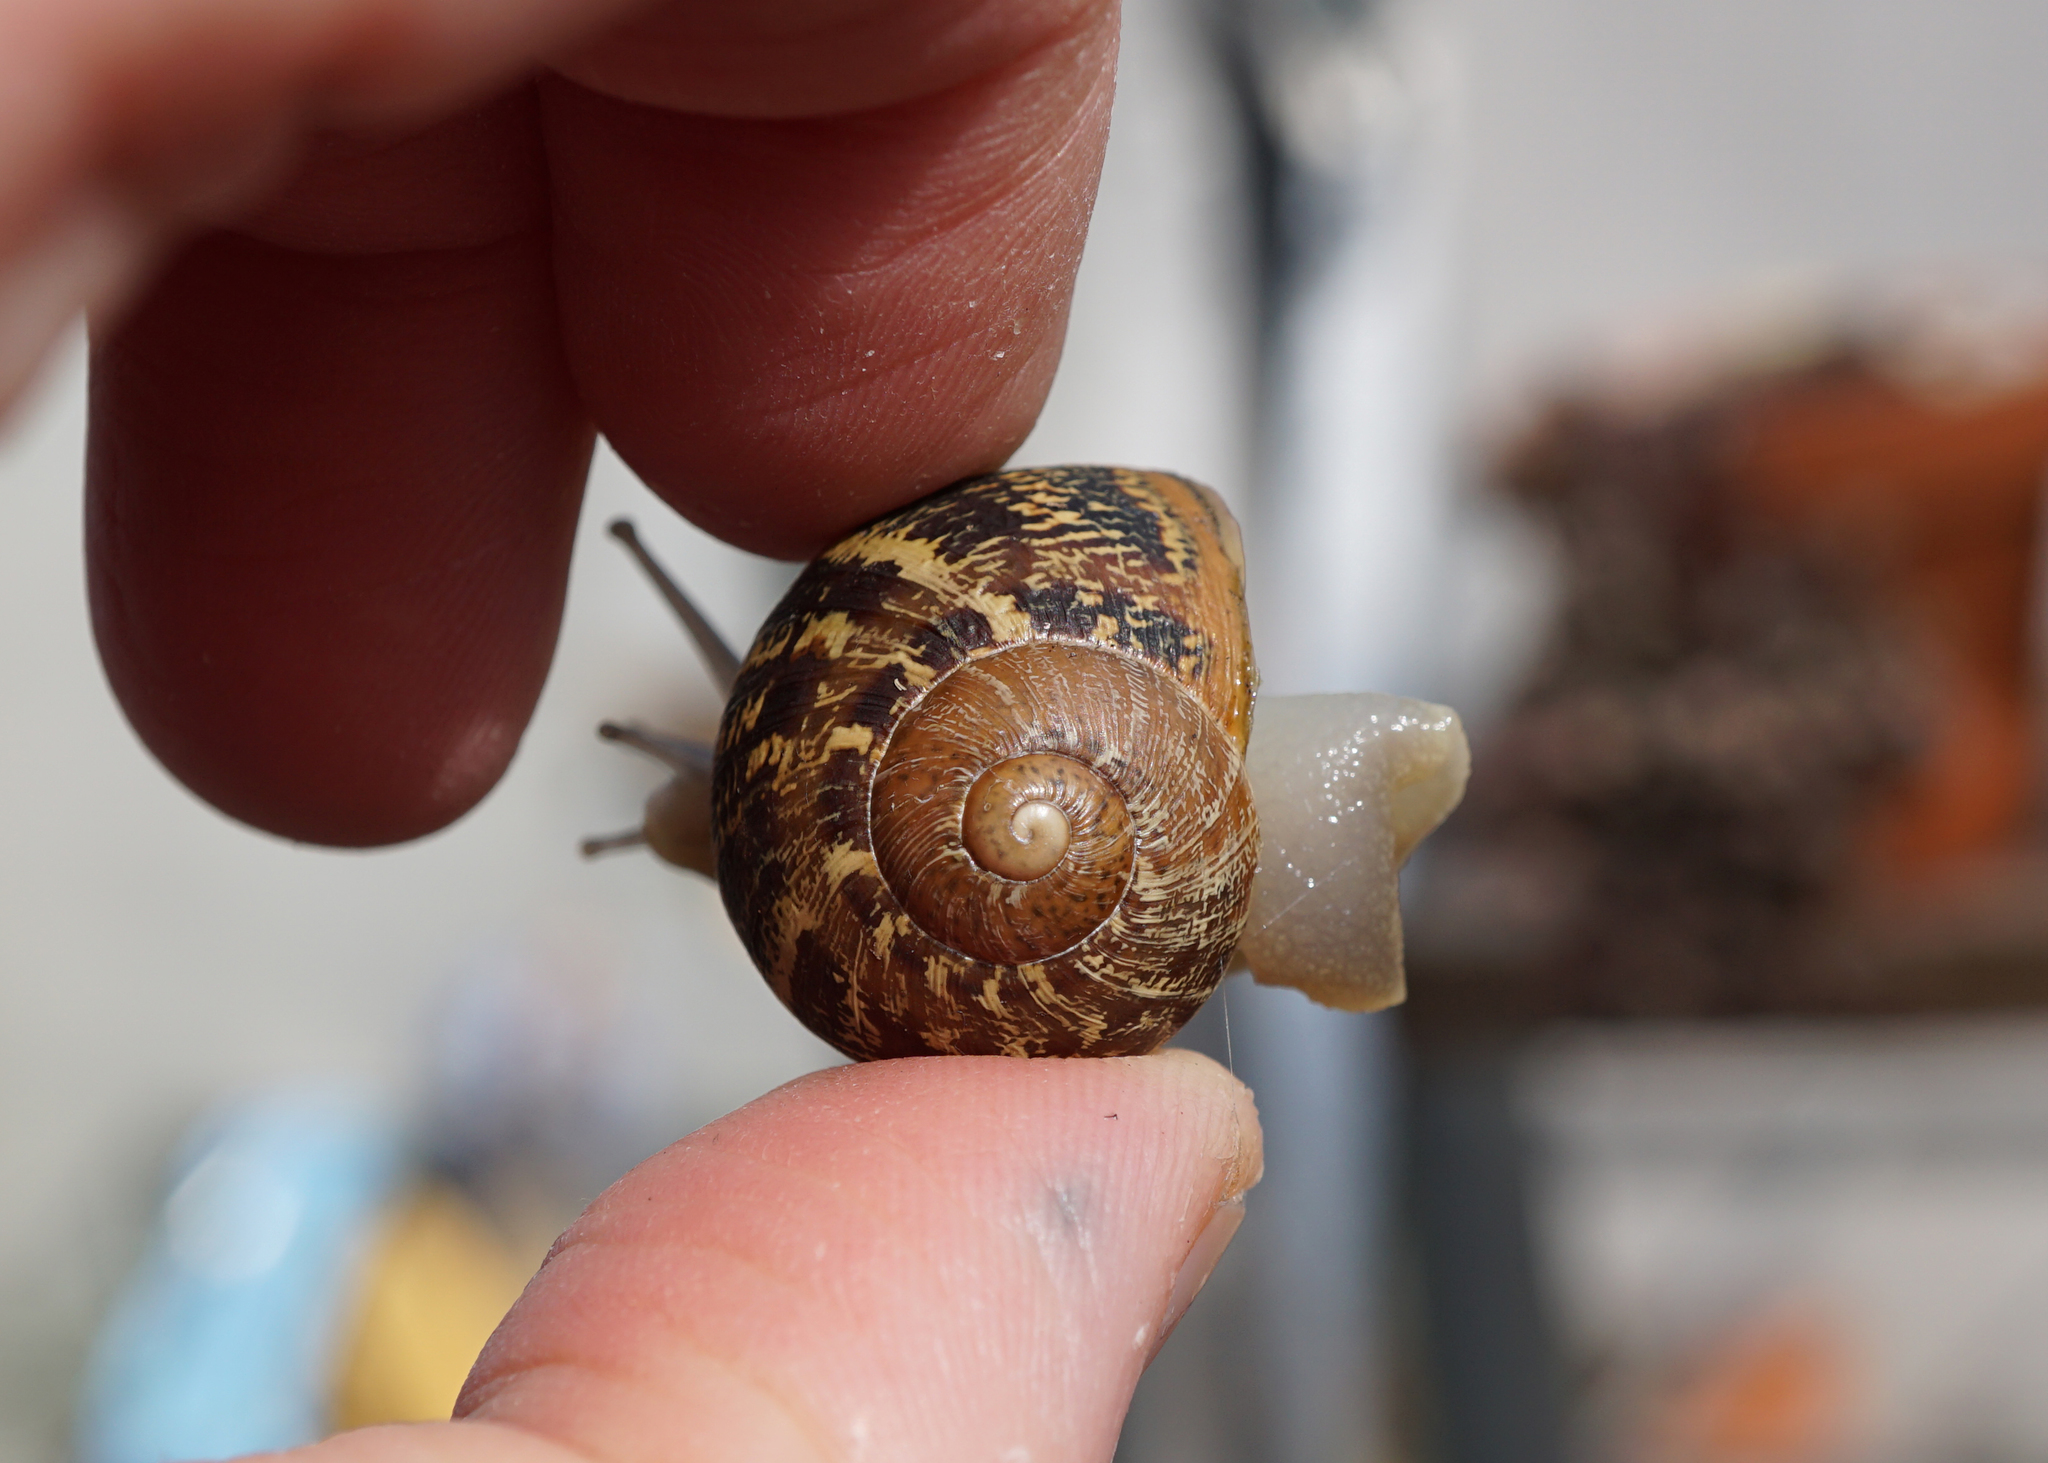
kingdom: Animalia
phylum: Mollusca
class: Gastropoda
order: Stylommatophora
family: Helicidae
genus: Cornu
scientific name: Cornu aspersum
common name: Brown garden snail
